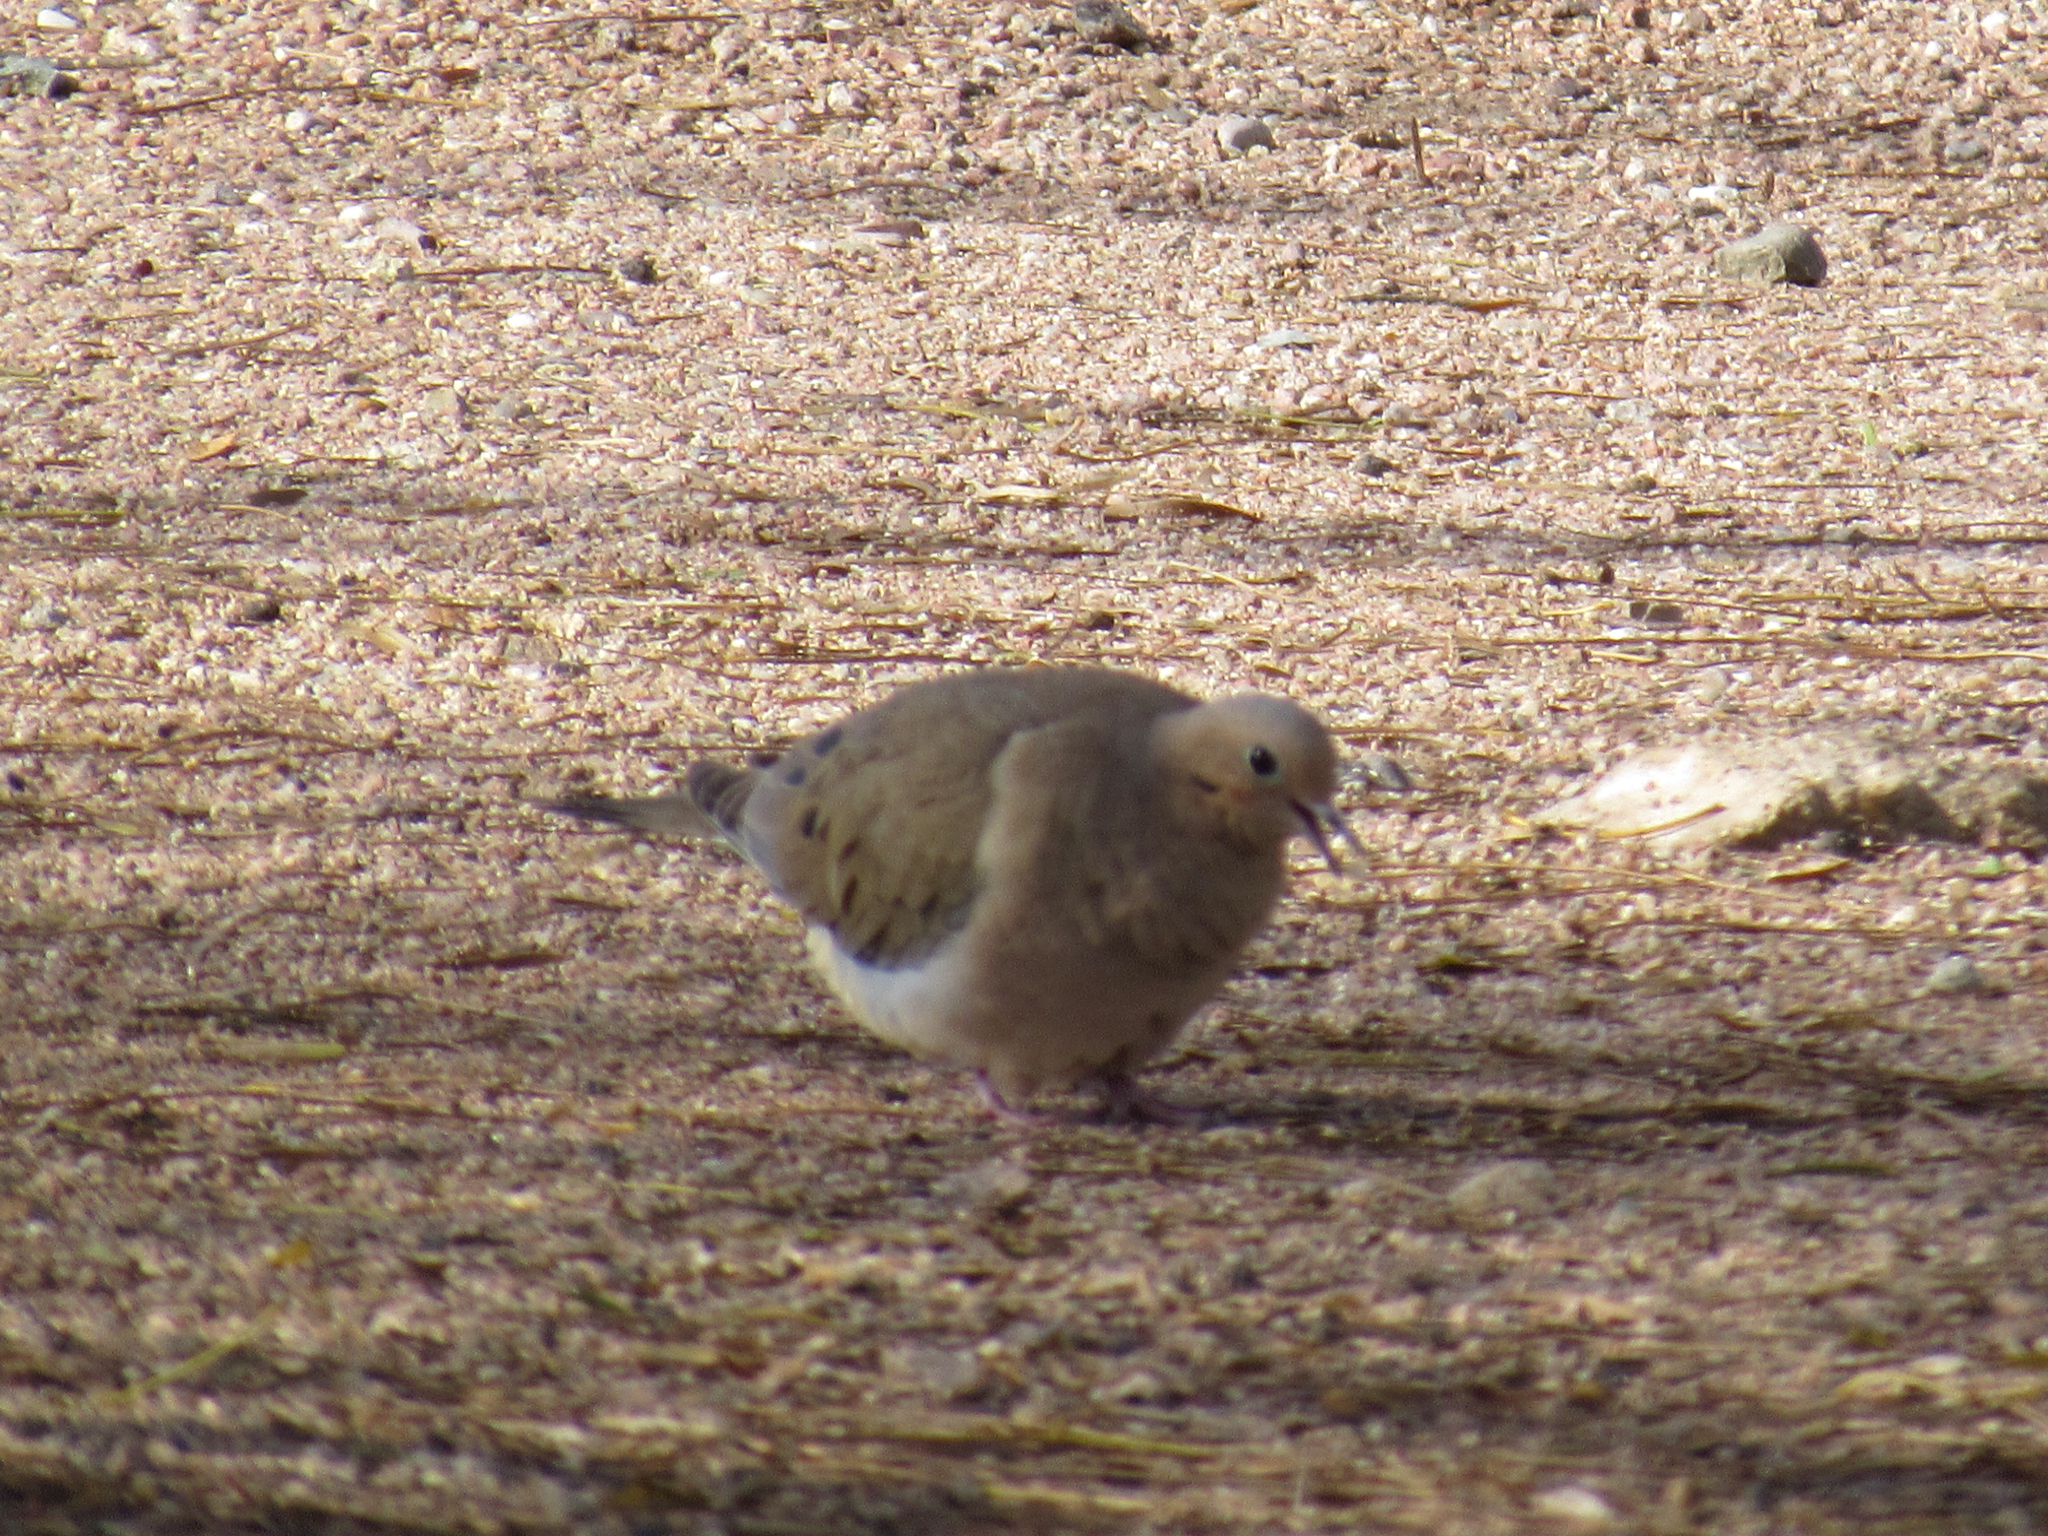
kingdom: Animalia
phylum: Chordata
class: Aves
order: Columbiformes
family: Columbidae
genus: Zenaida
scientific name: Zenaida macroura
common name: Mourning dove
